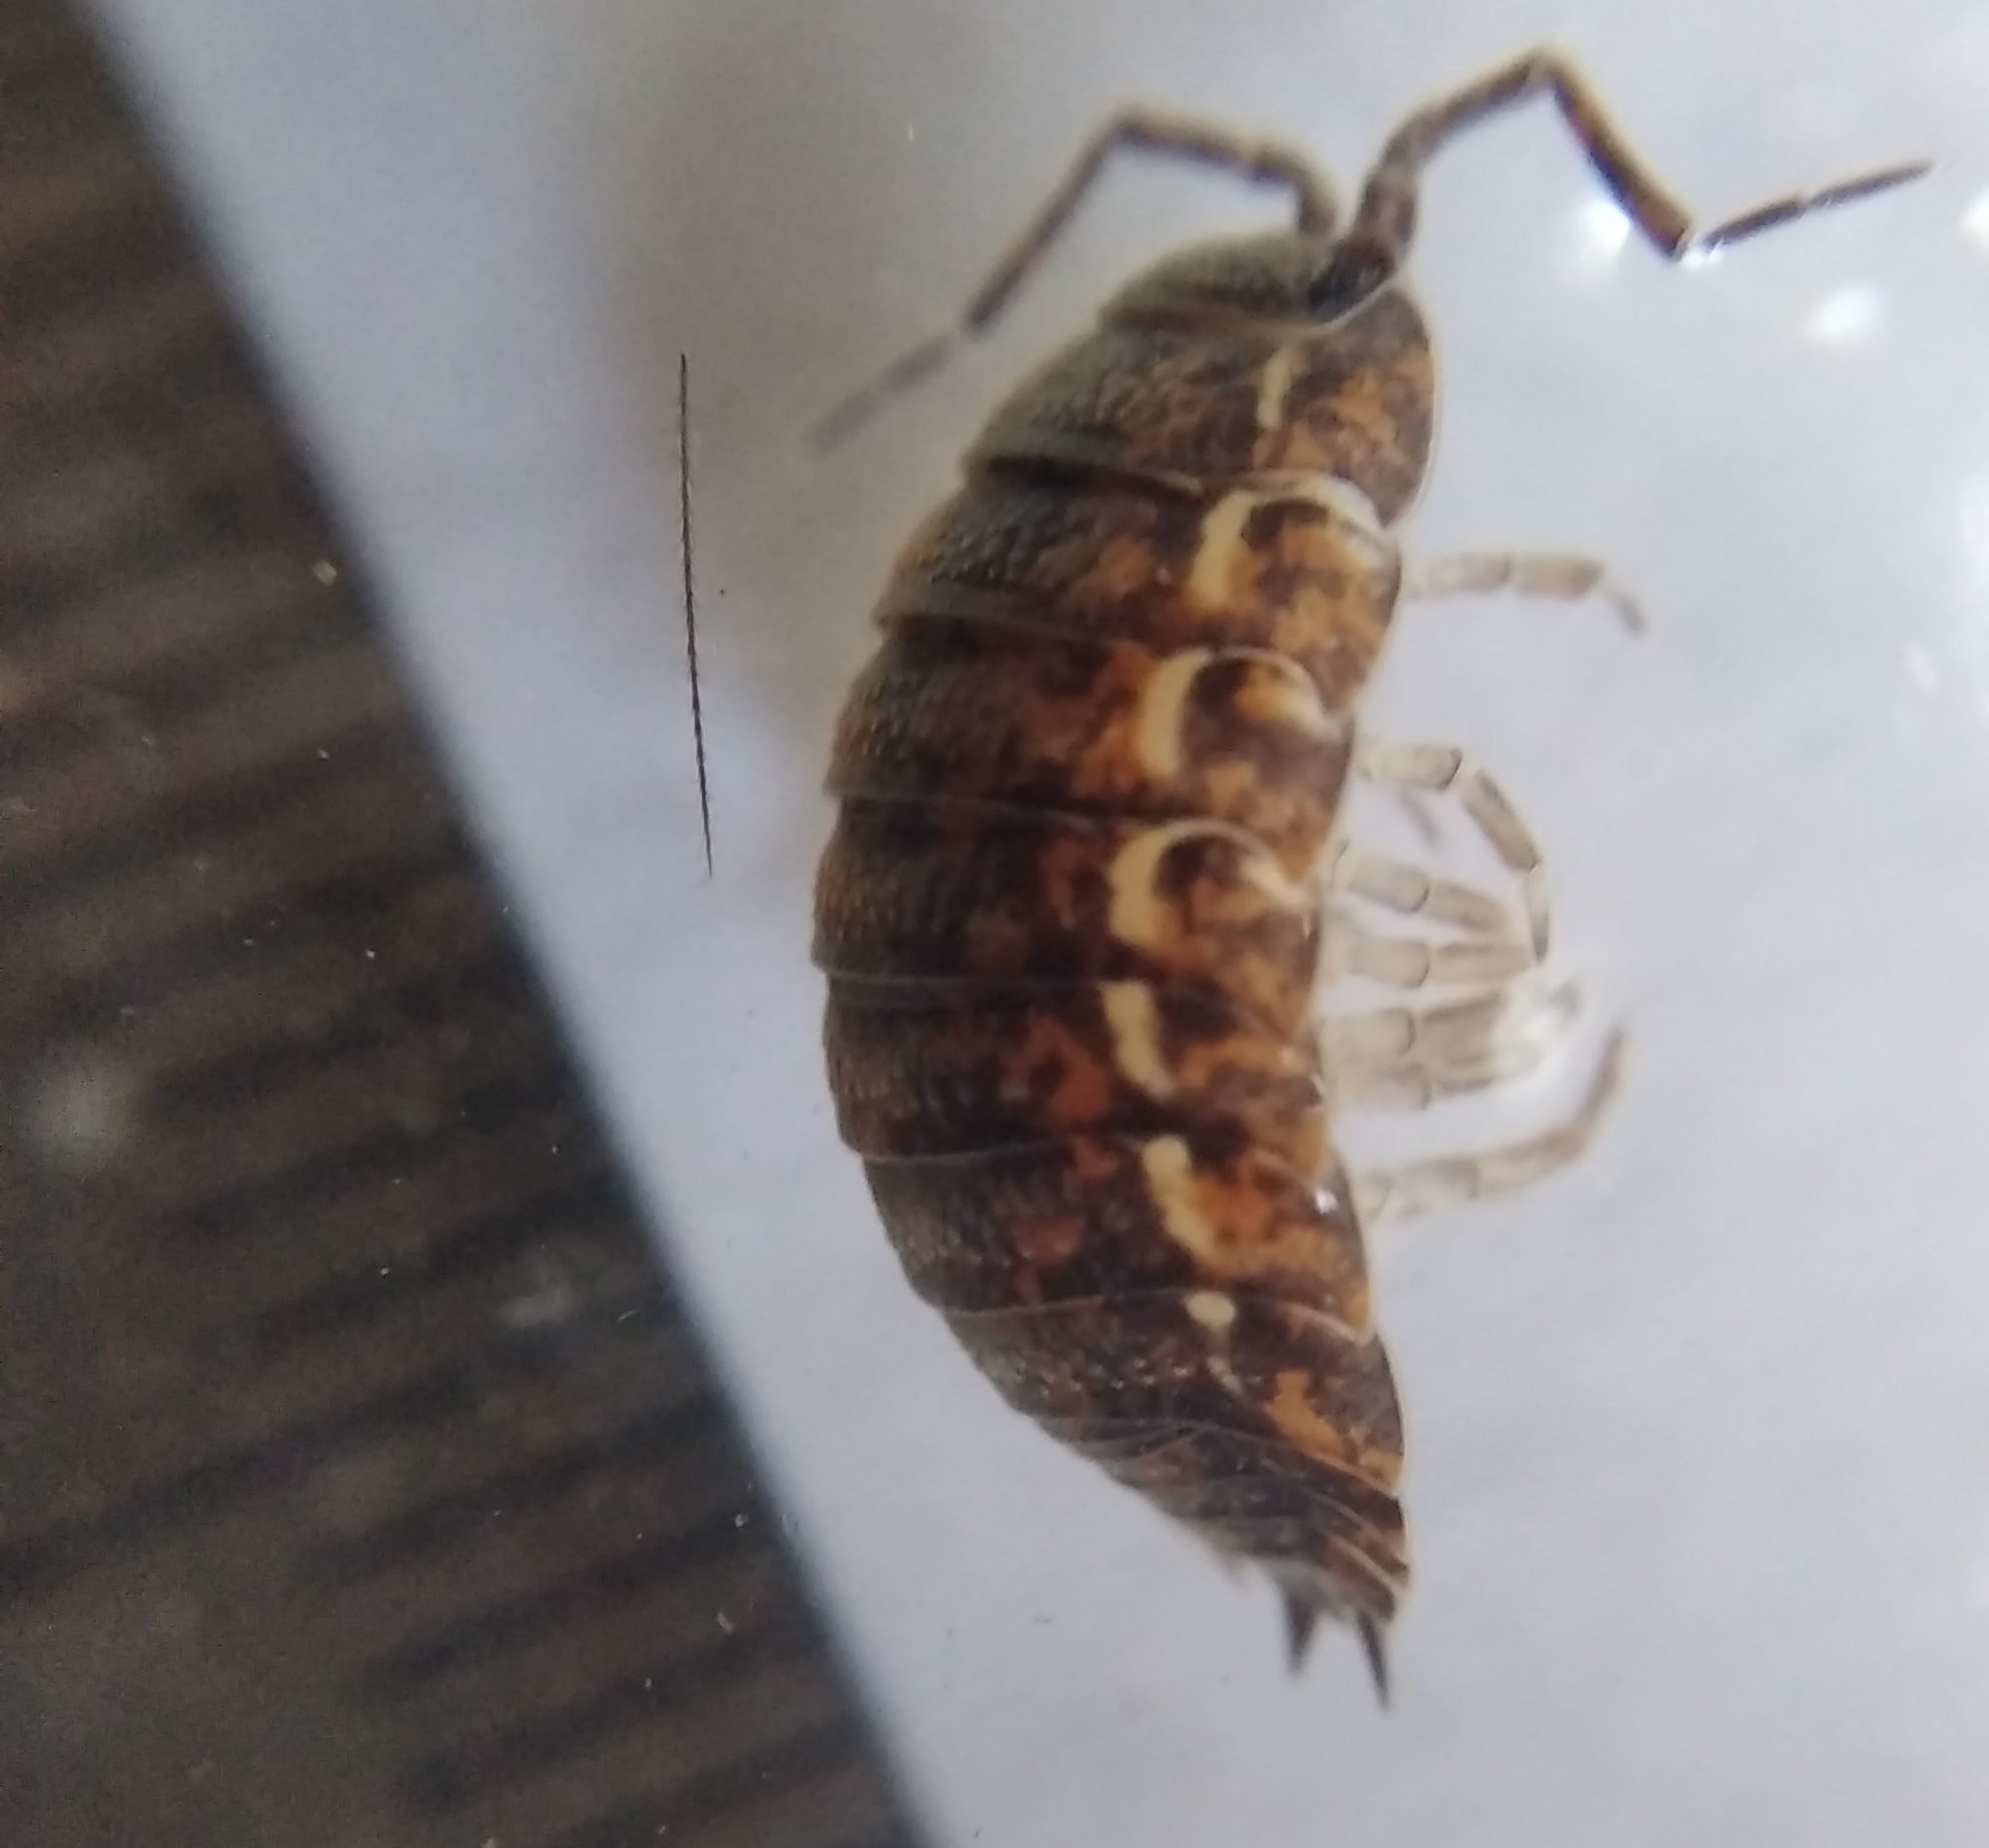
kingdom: Animalia
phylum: Arthropoda
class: Malacostraca
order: Isopoda
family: Trachelipodidae
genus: Trachelipus
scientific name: Trachelipus rathkii
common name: Isopod
